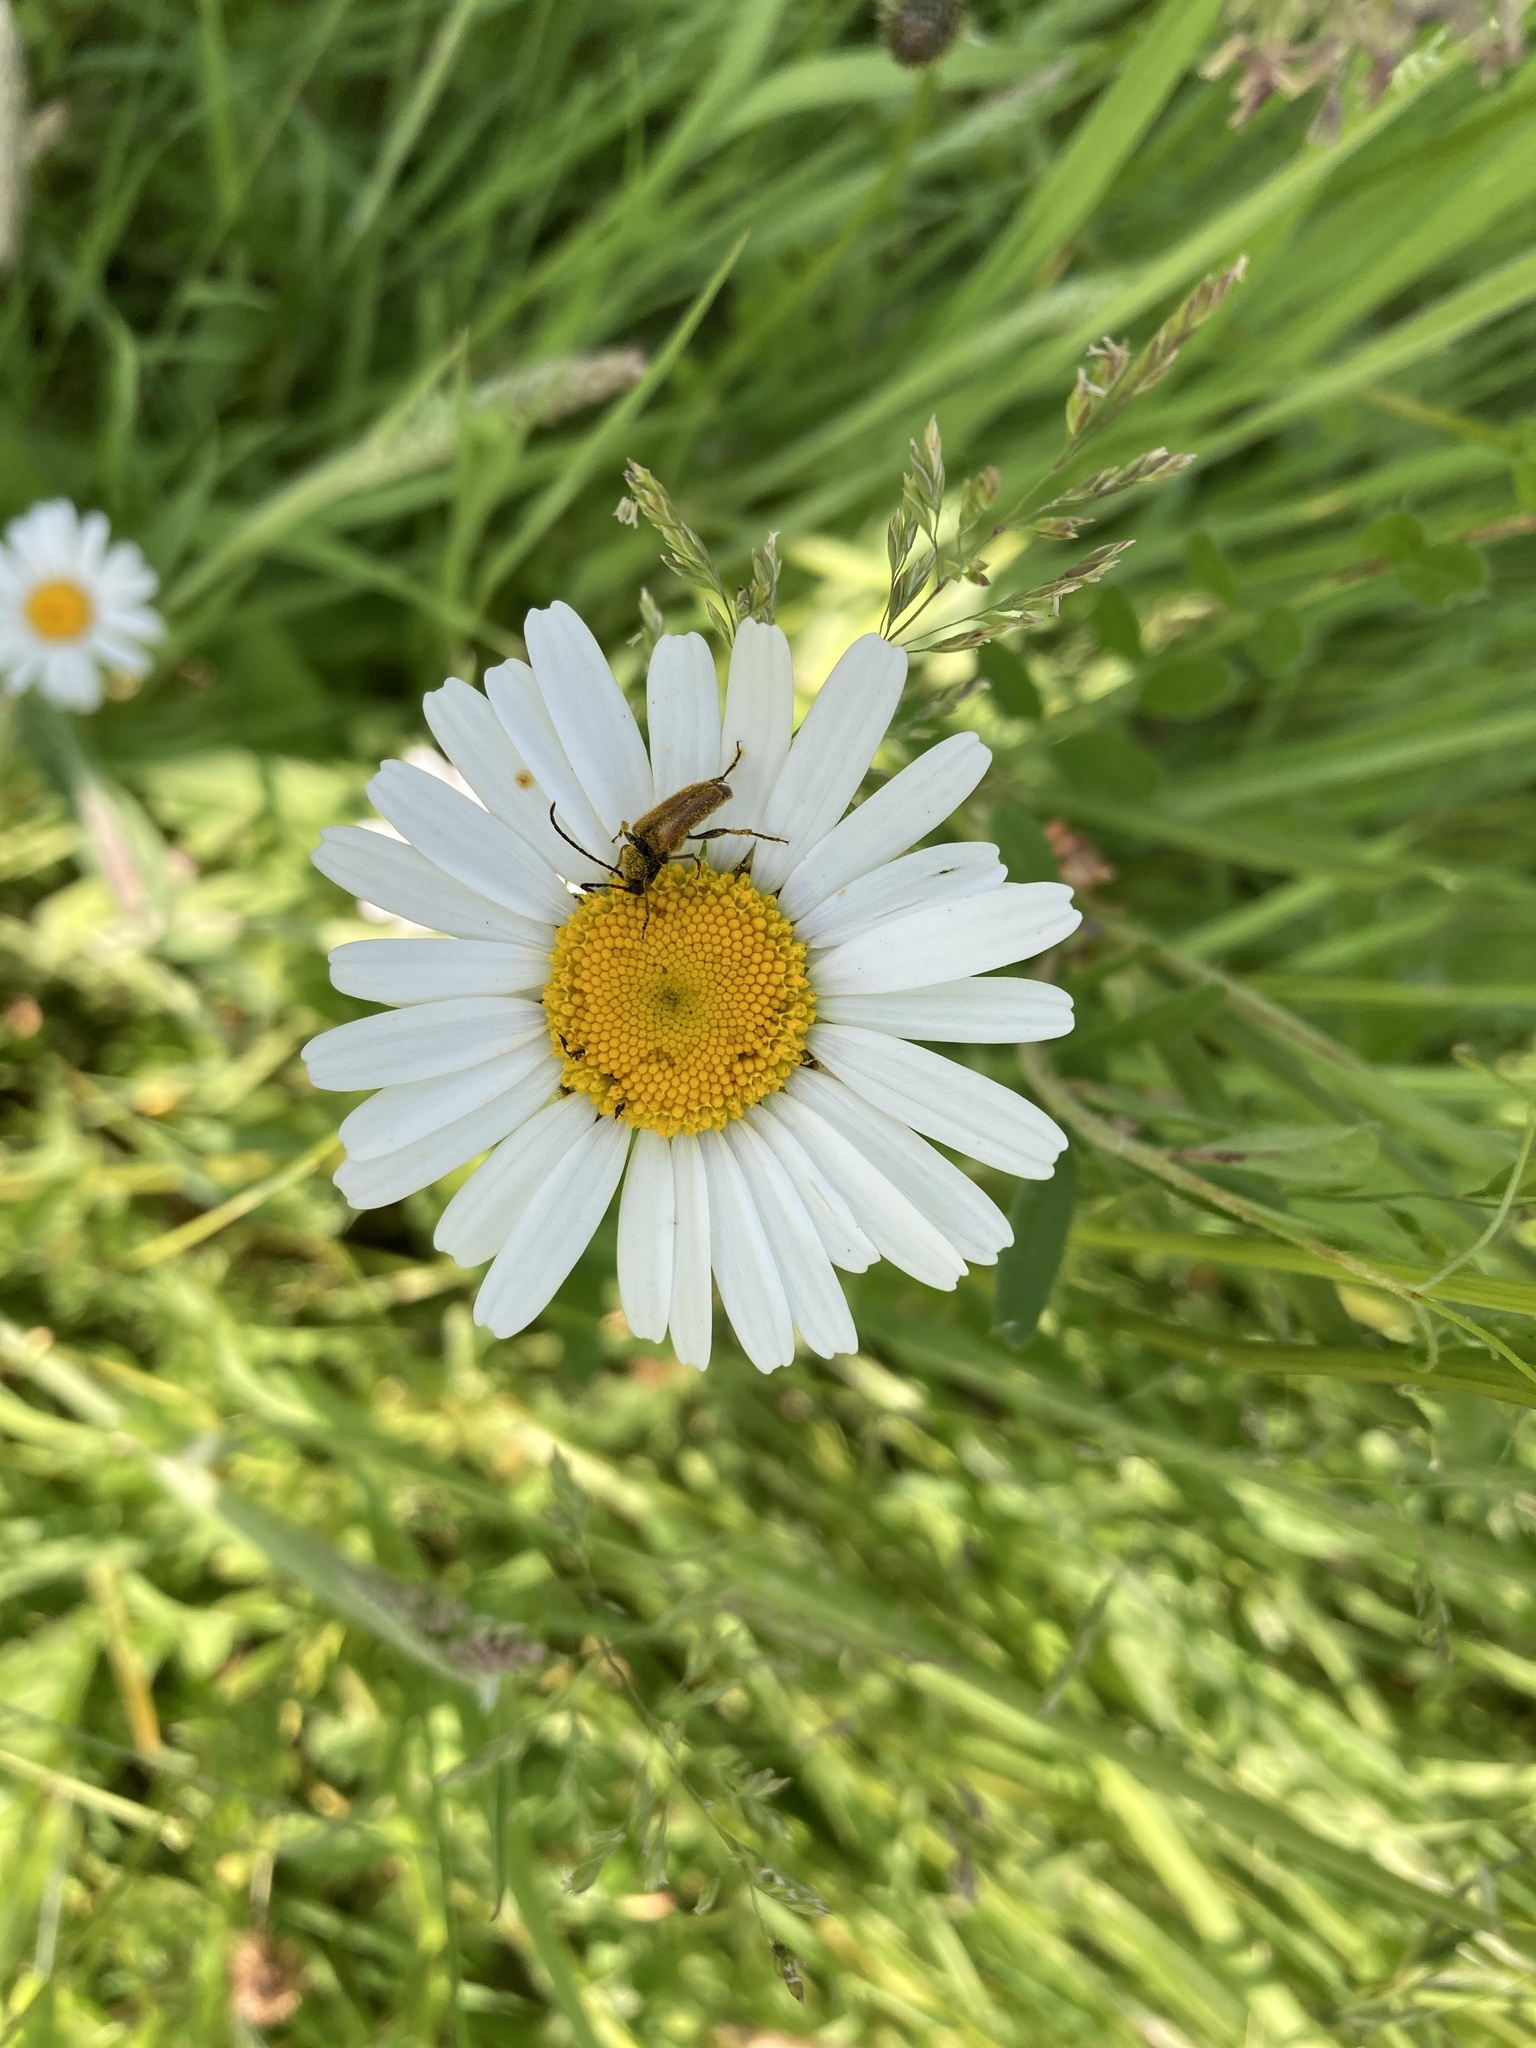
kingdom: Animalia
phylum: Arthropoda
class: Insecta
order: Coleoptera
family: Cerambycidae
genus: Pseudovadonia
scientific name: Pseudovadonia livida
